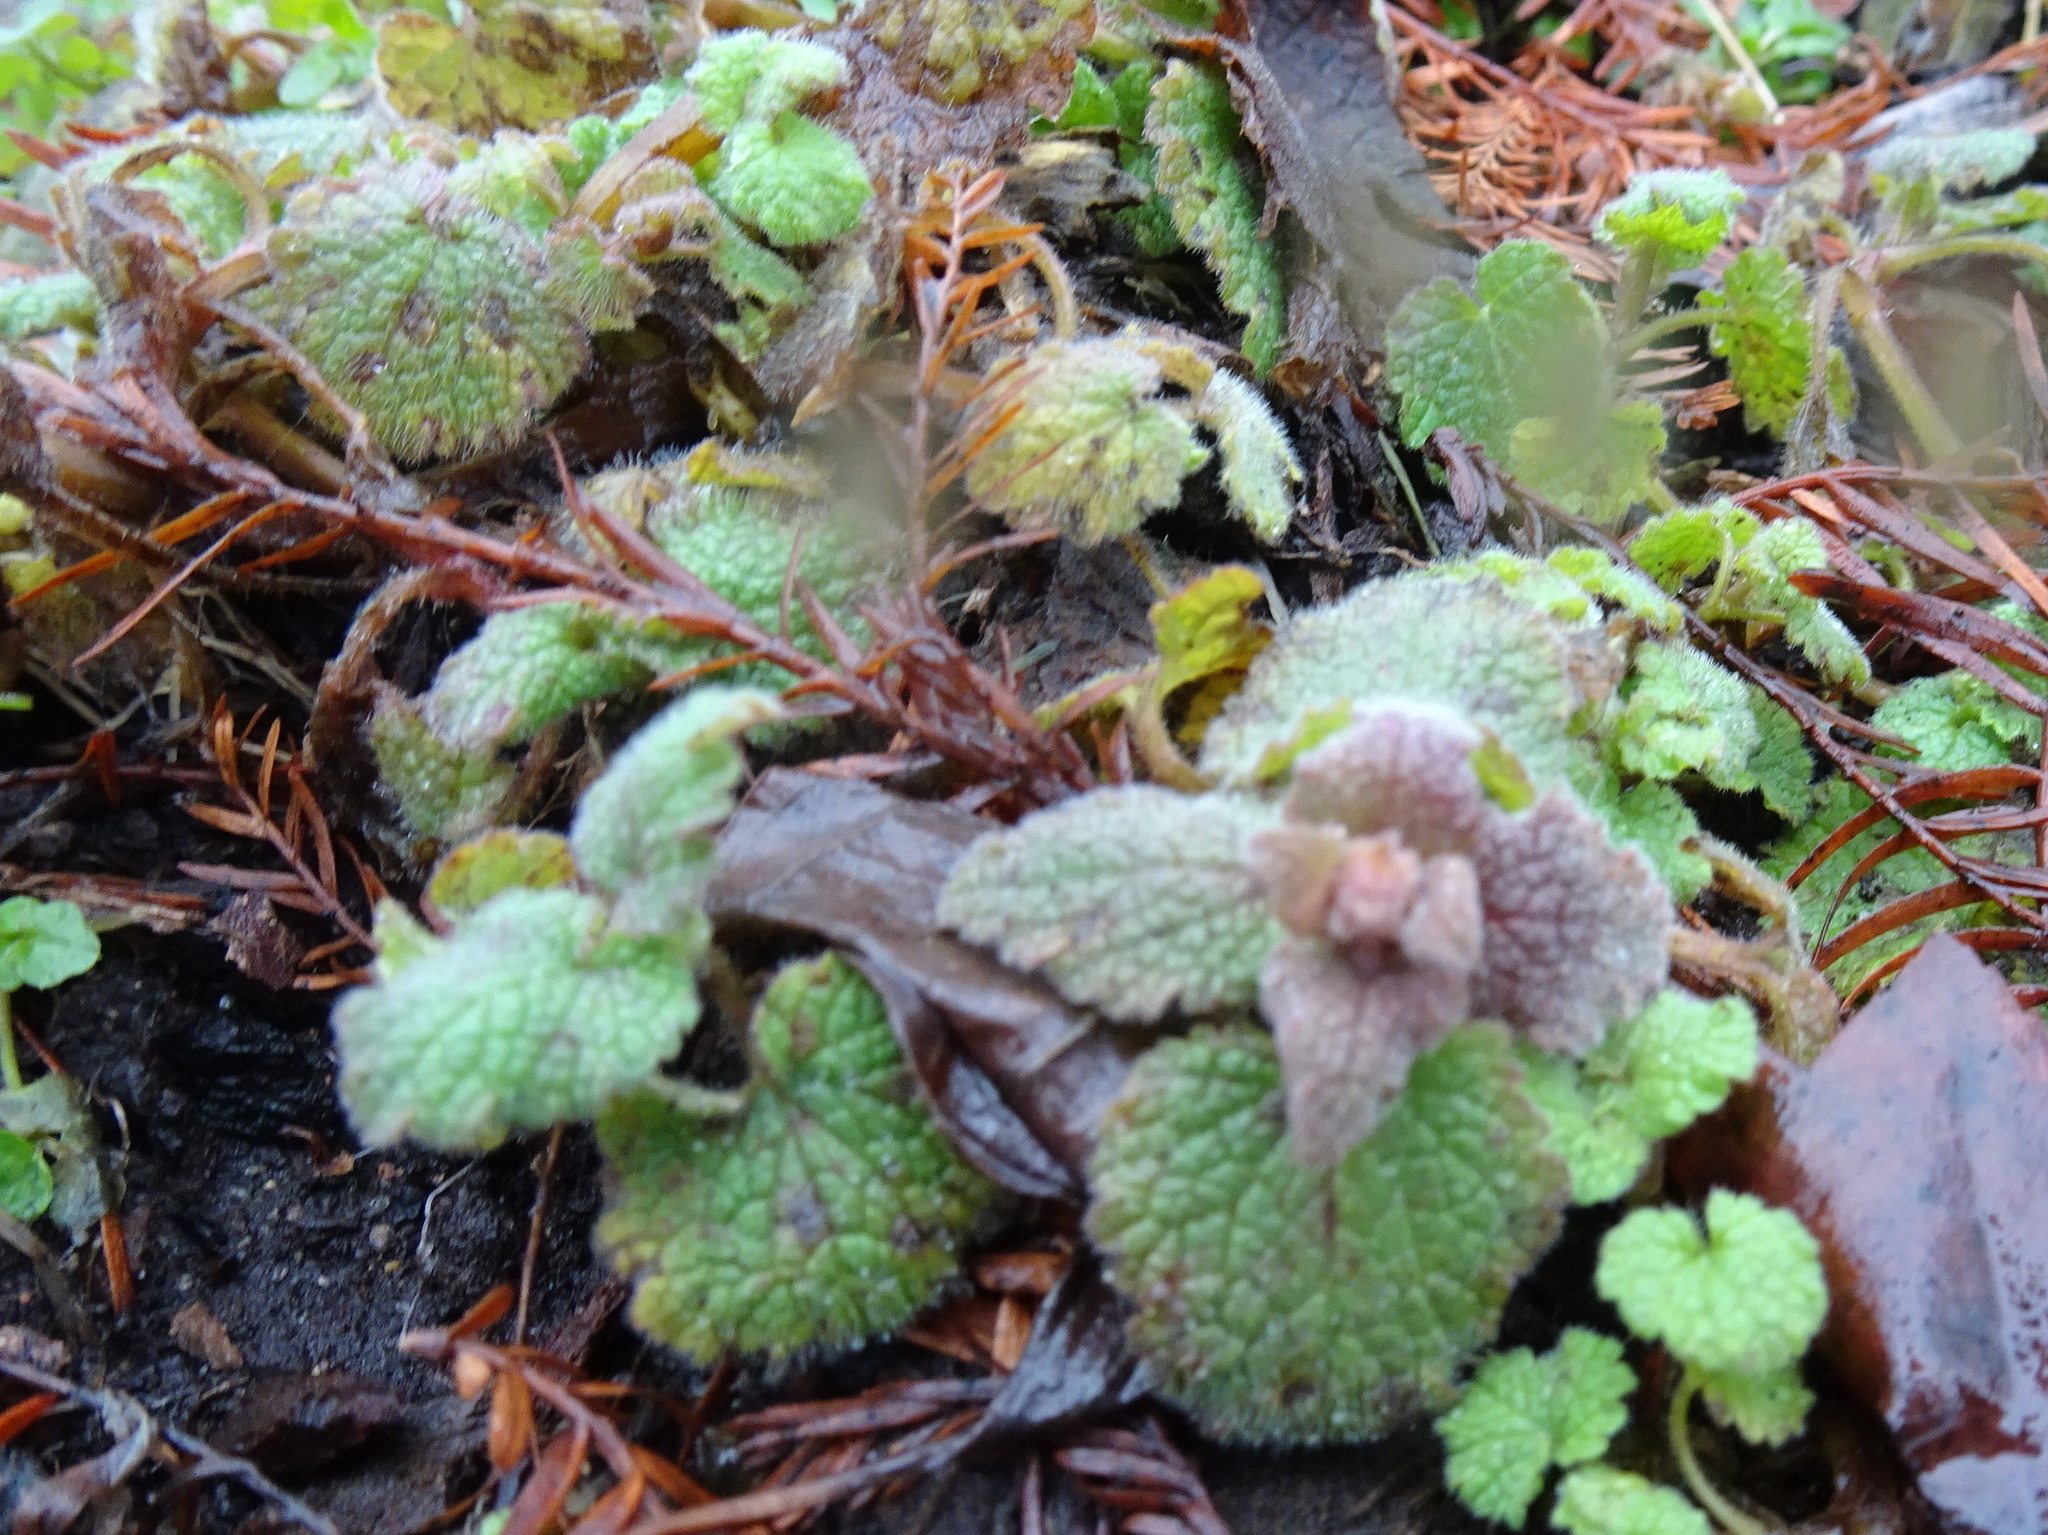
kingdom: Plantae
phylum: Tracheophyta
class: Magnoliopsida
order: Lamiales
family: Lamiaceae
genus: Lamium
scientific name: Lamium purpureum
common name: Red dead-nettle
